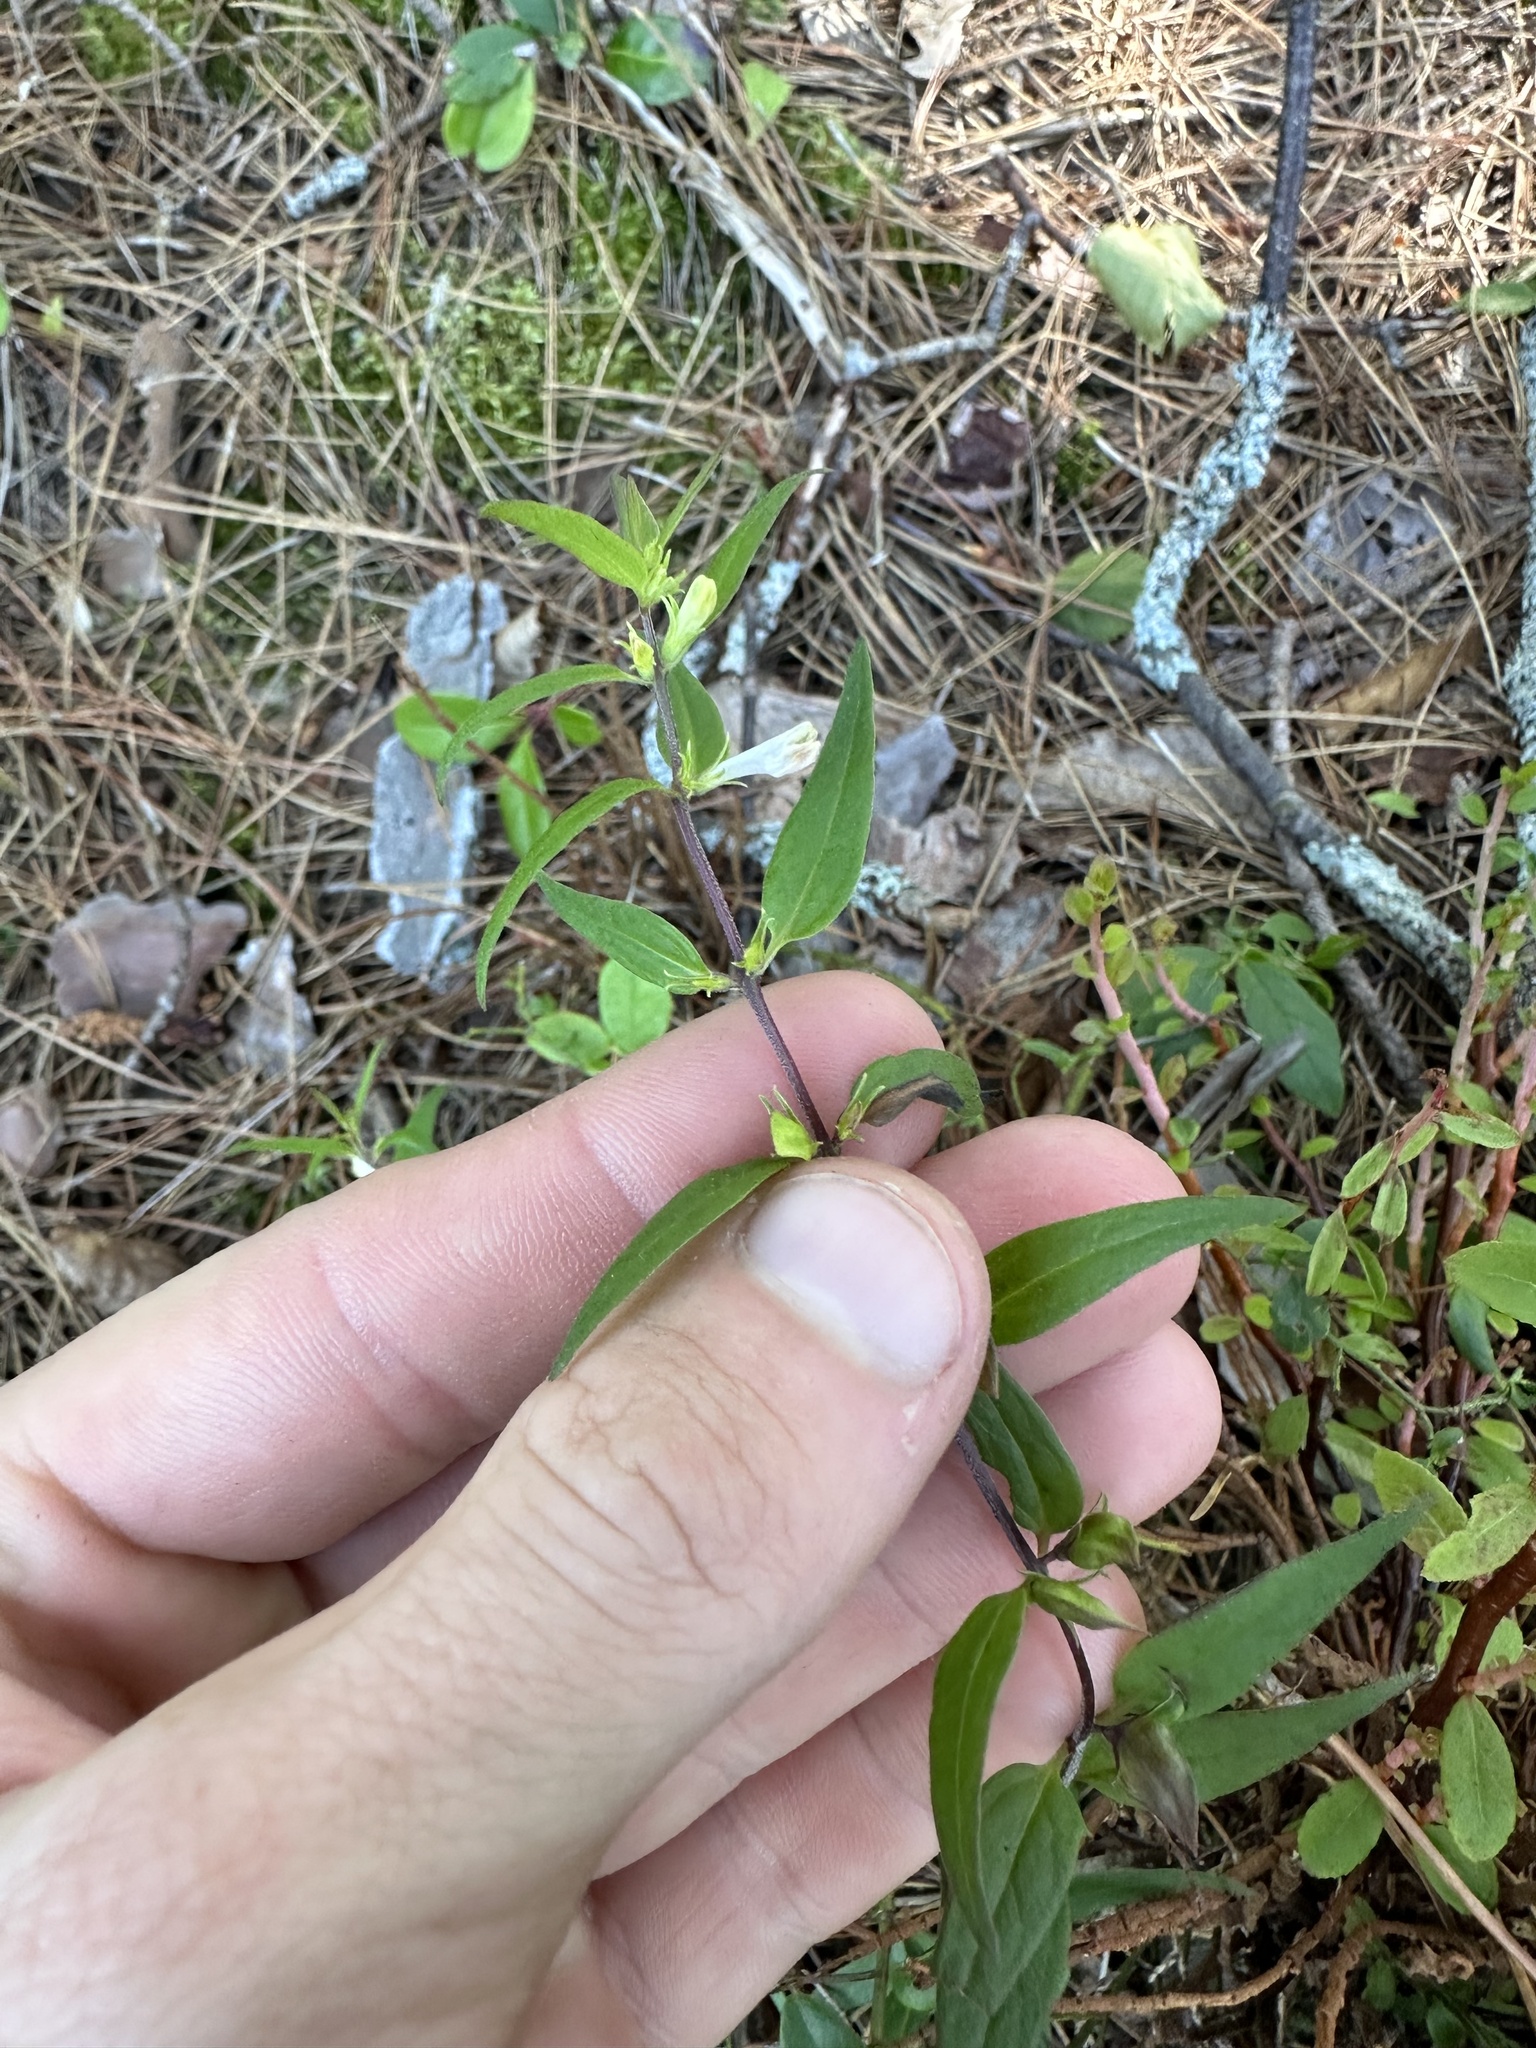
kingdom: Plantae
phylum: Tracheophyta
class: Magnoliopsida
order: Lamiales
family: Orobanchaceae
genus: Melampyrum
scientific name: Melampyrum lineare
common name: American cow-wheat
